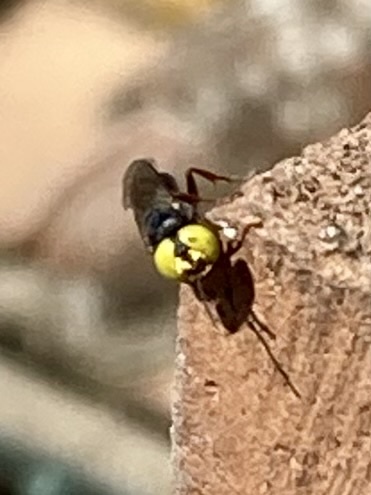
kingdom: Animalia
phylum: Arthropoda
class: Insecta
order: Hymenoptera
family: Crabronidae
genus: Tachysphex
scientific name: Tachysphex
